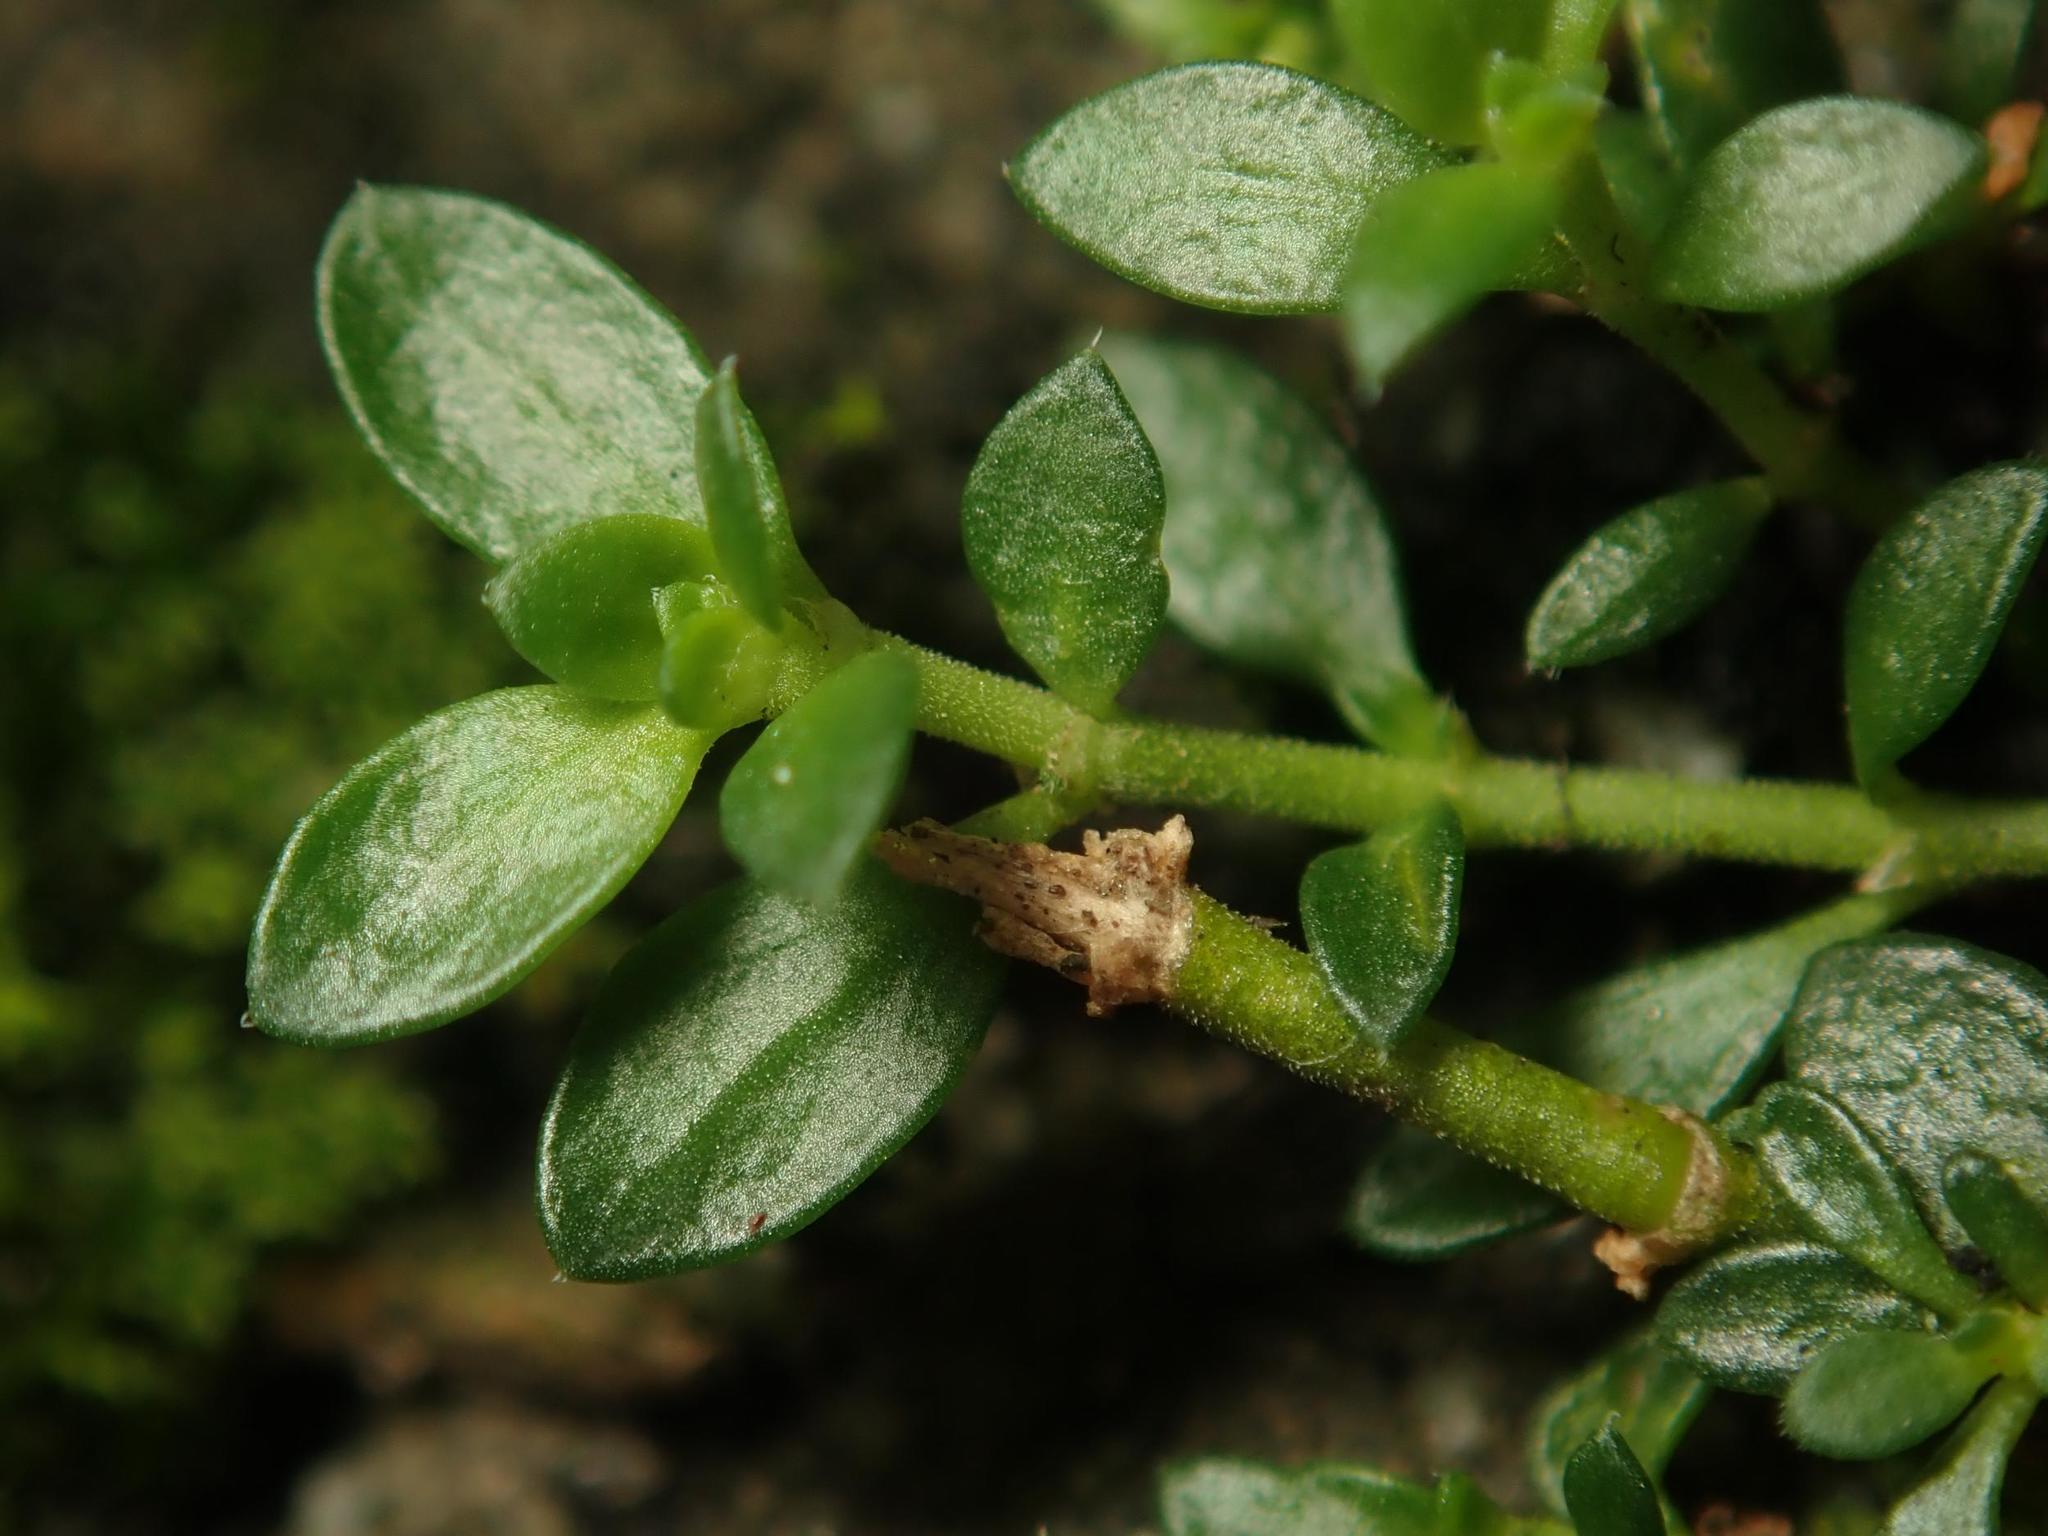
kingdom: Plantae
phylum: Tracheophyta
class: Magnoliopsida
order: Caryophyllales
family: Caryophyllaceae
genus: Herniaria
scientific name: Herniaria glabra
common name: Smooth rupturewort
